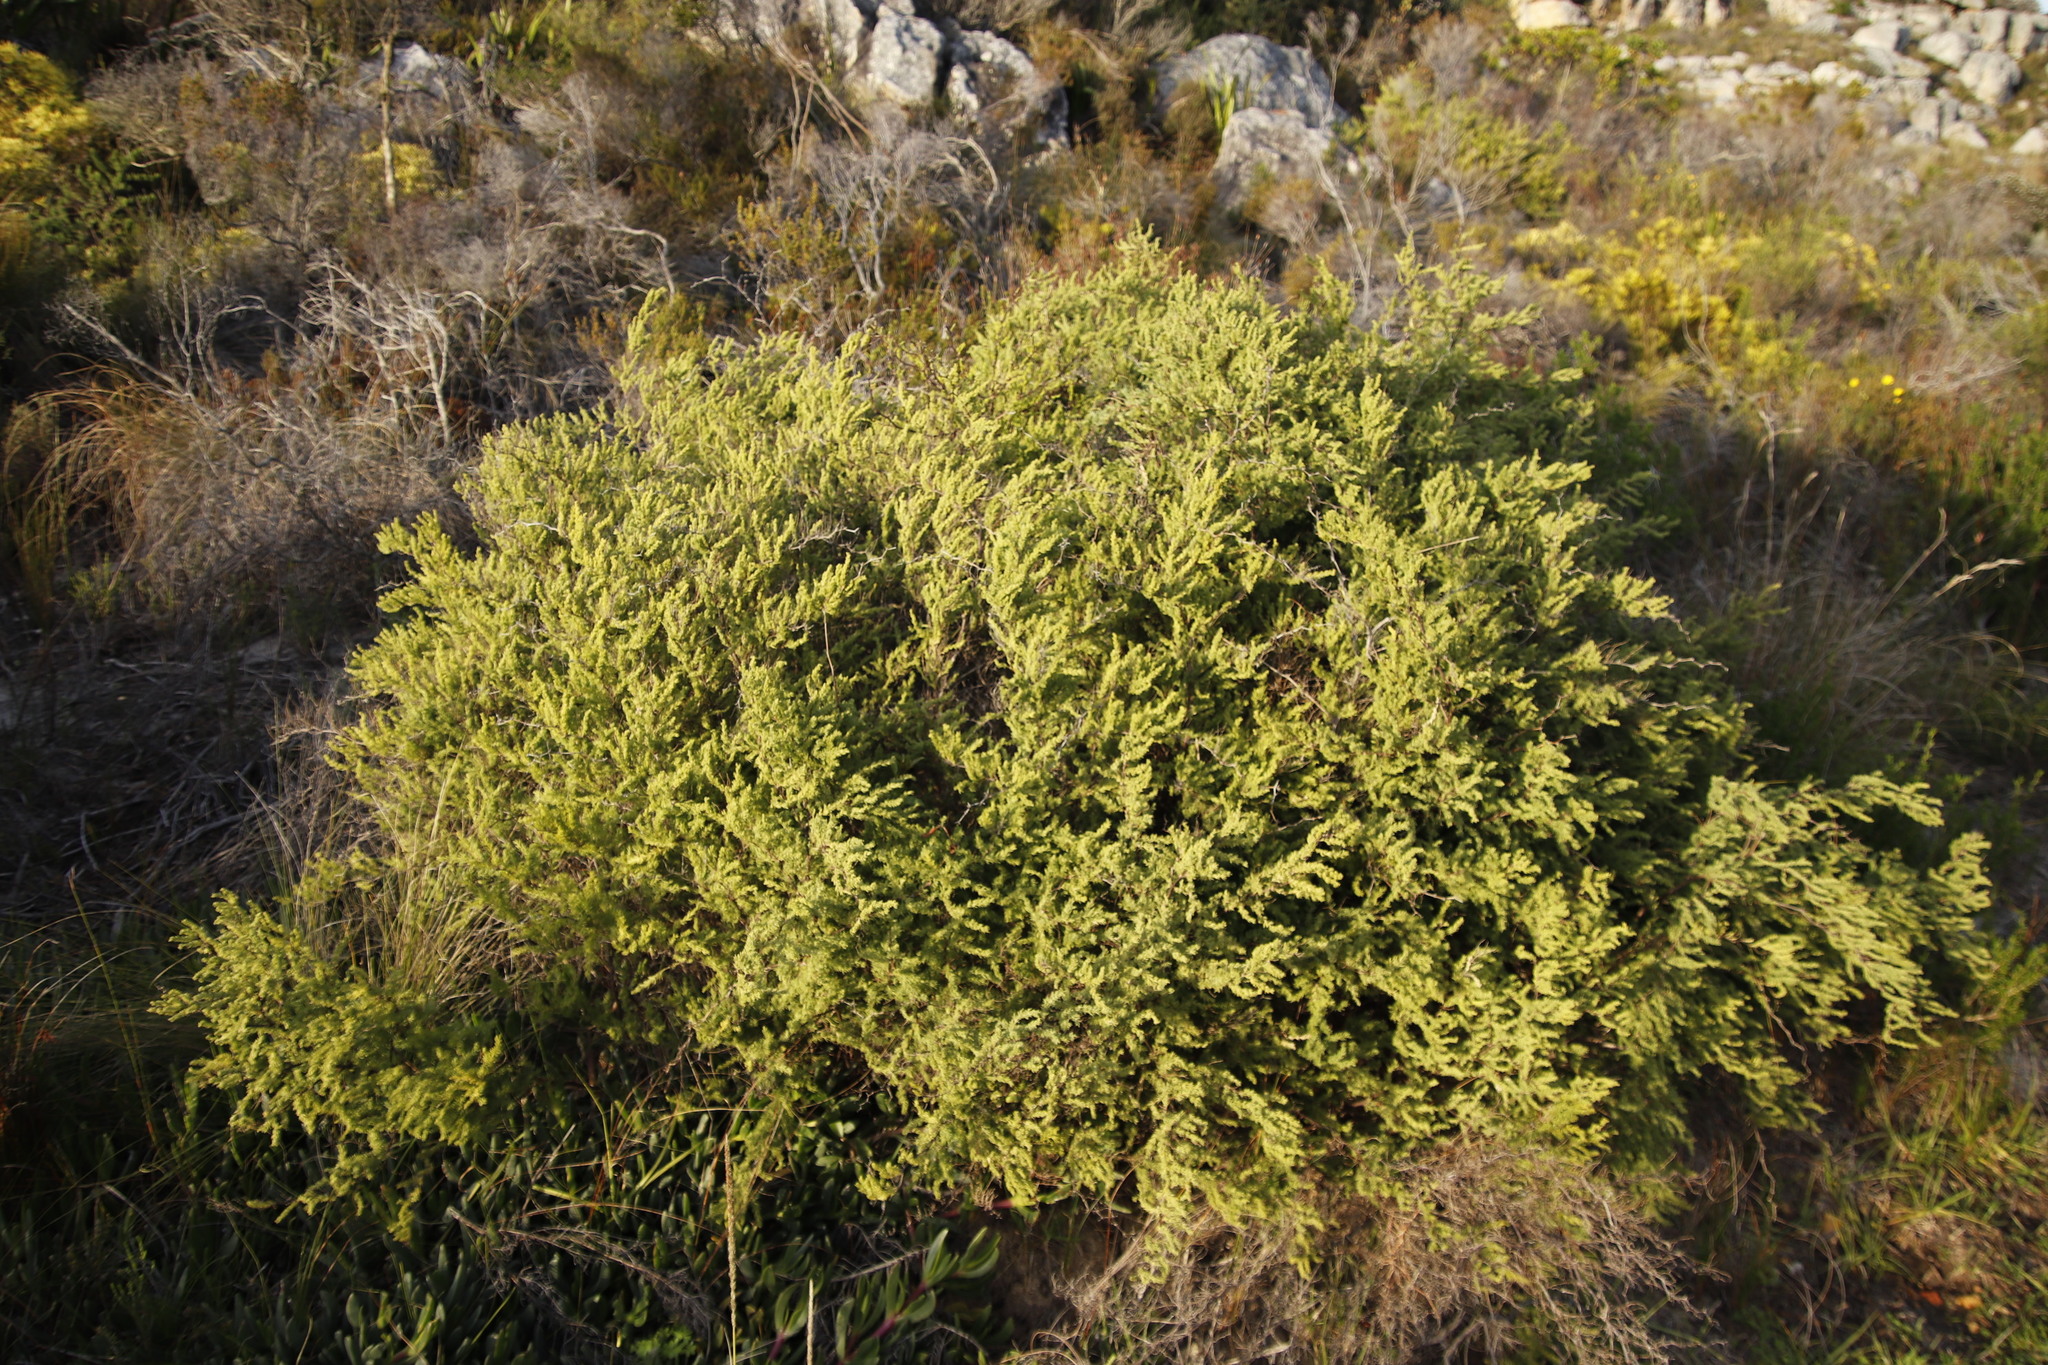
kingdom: Plantae
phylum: Tracheophyta
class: Liliopsida
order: Asparagales
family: Asparagaceae
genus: Asparagus
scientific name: Asparagus rubicundus
